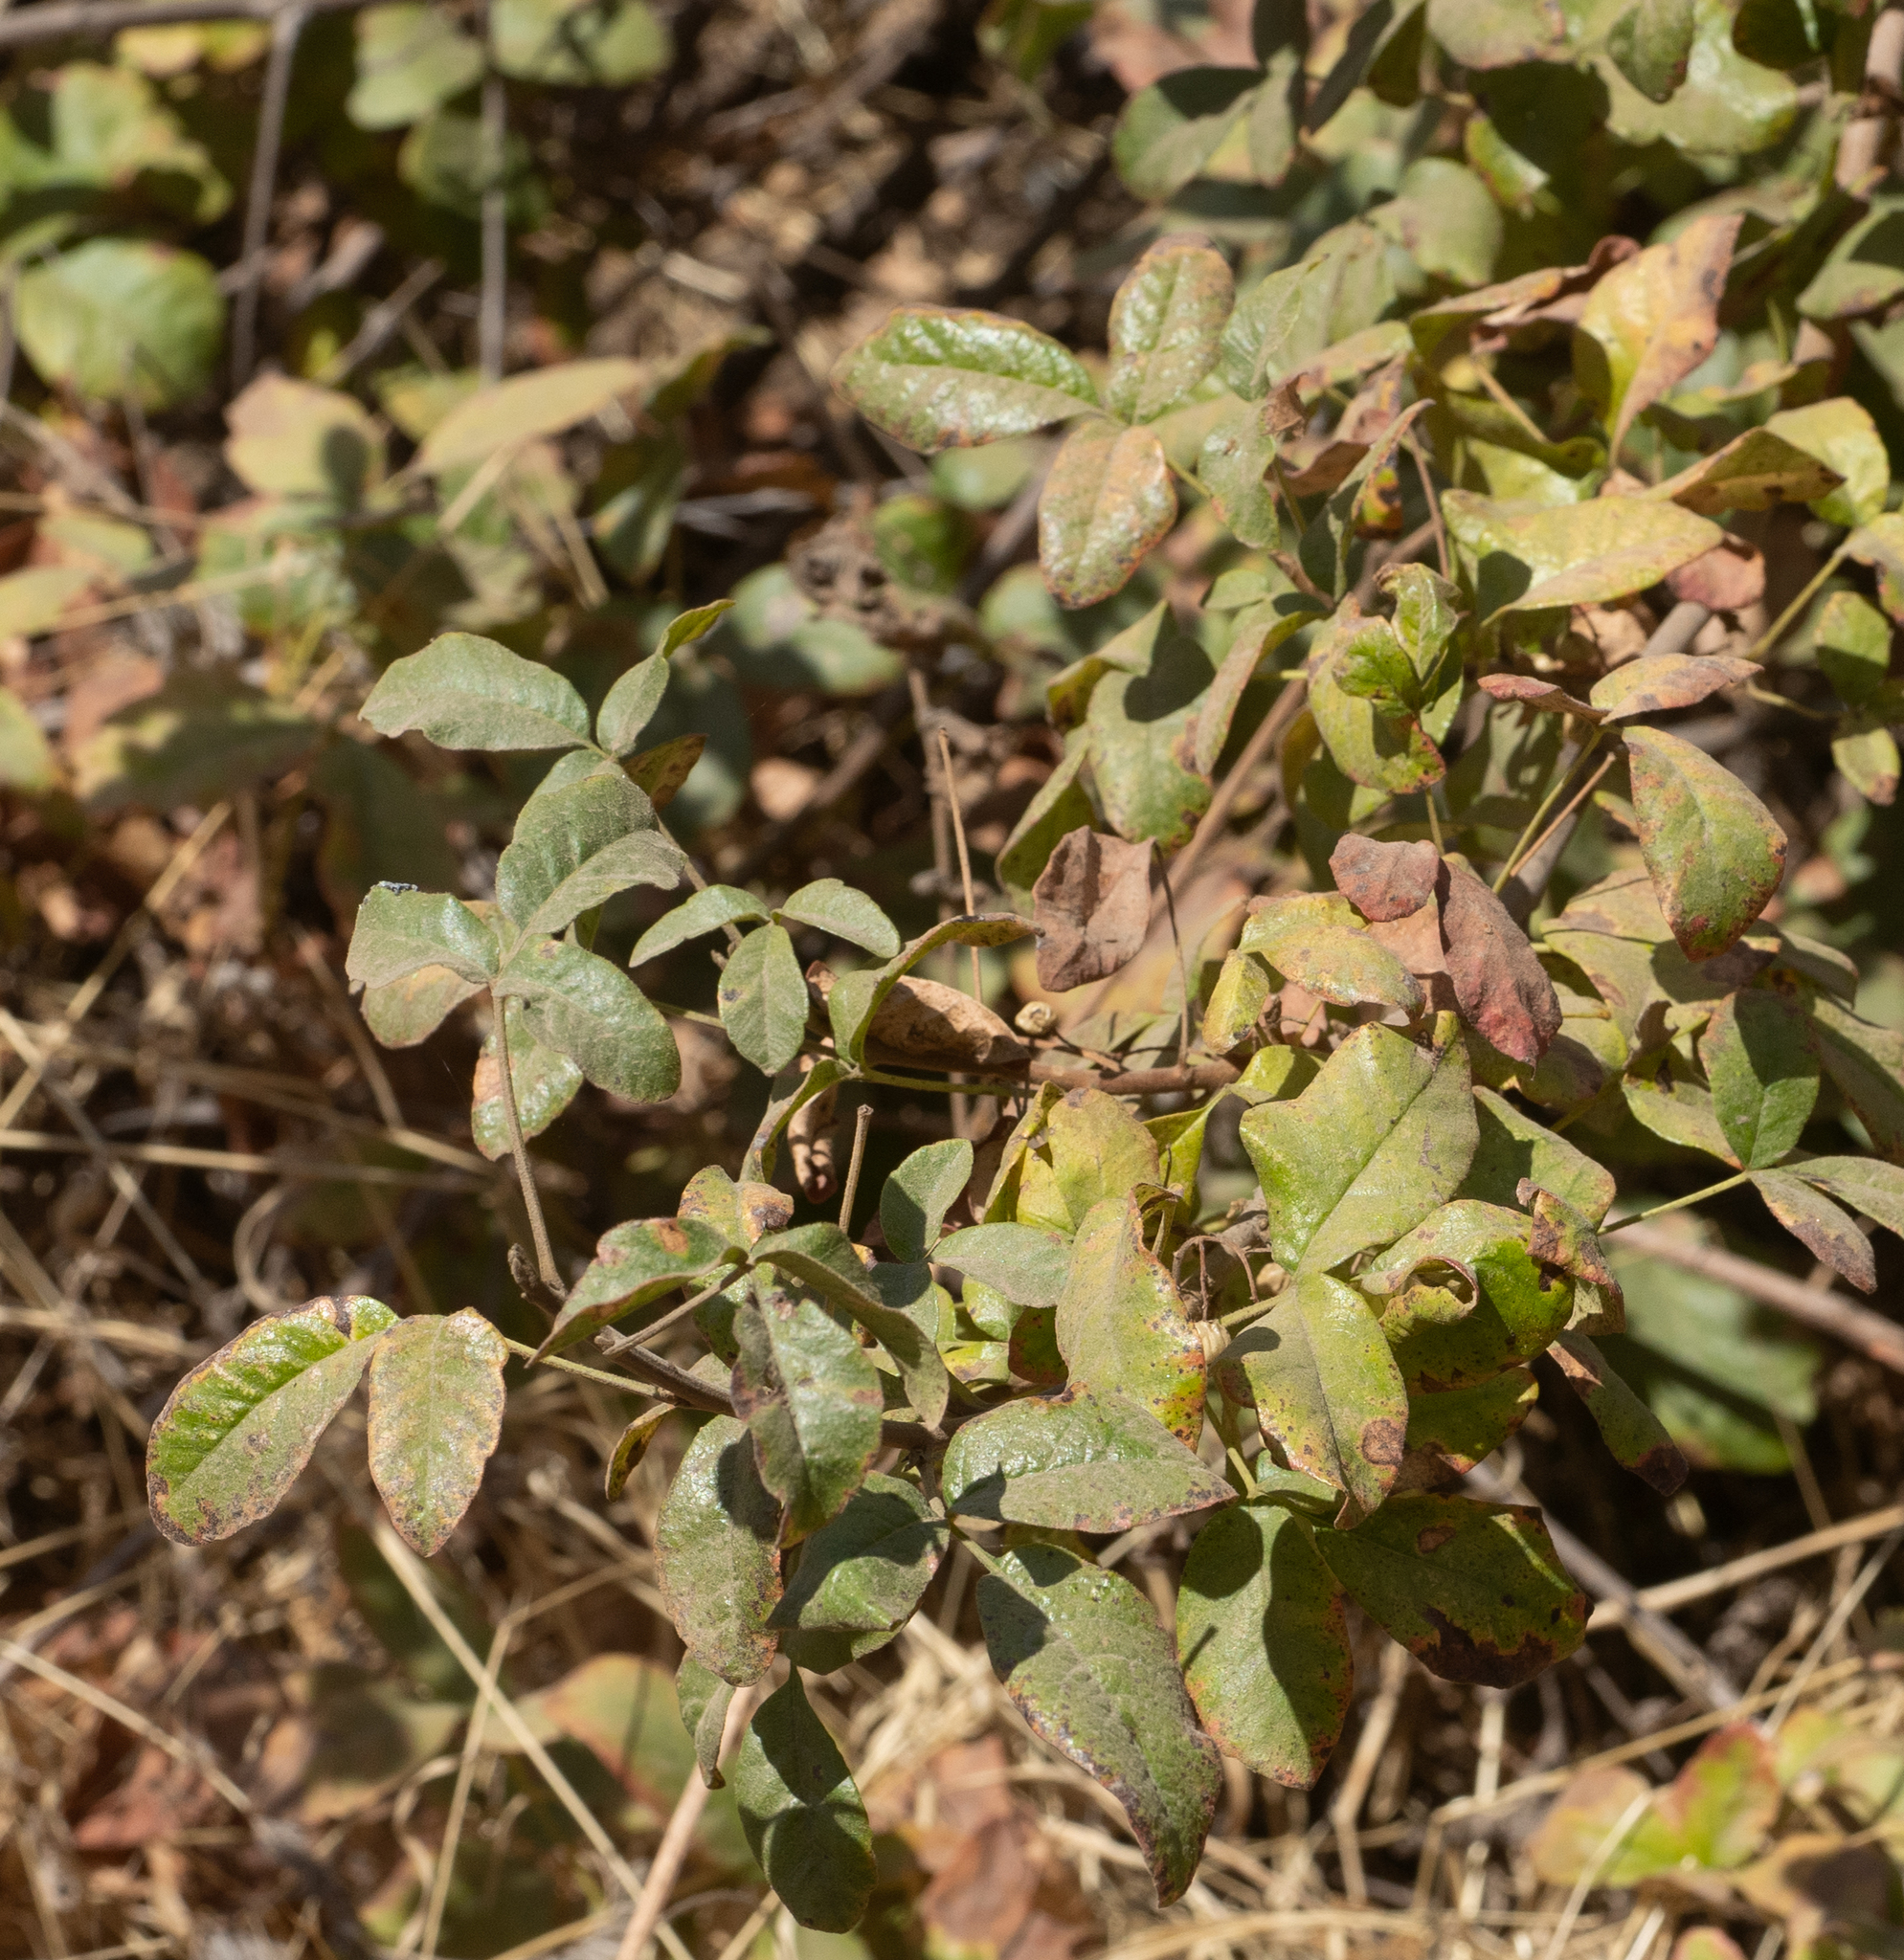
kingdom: Plantae
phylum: Tracheophyta
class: Magnoliopsida
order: Sapindales
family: Anacardiaceae
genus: Toxicodendron
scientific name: Toxicodendron diversilobum
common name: Pacific poison-oak
